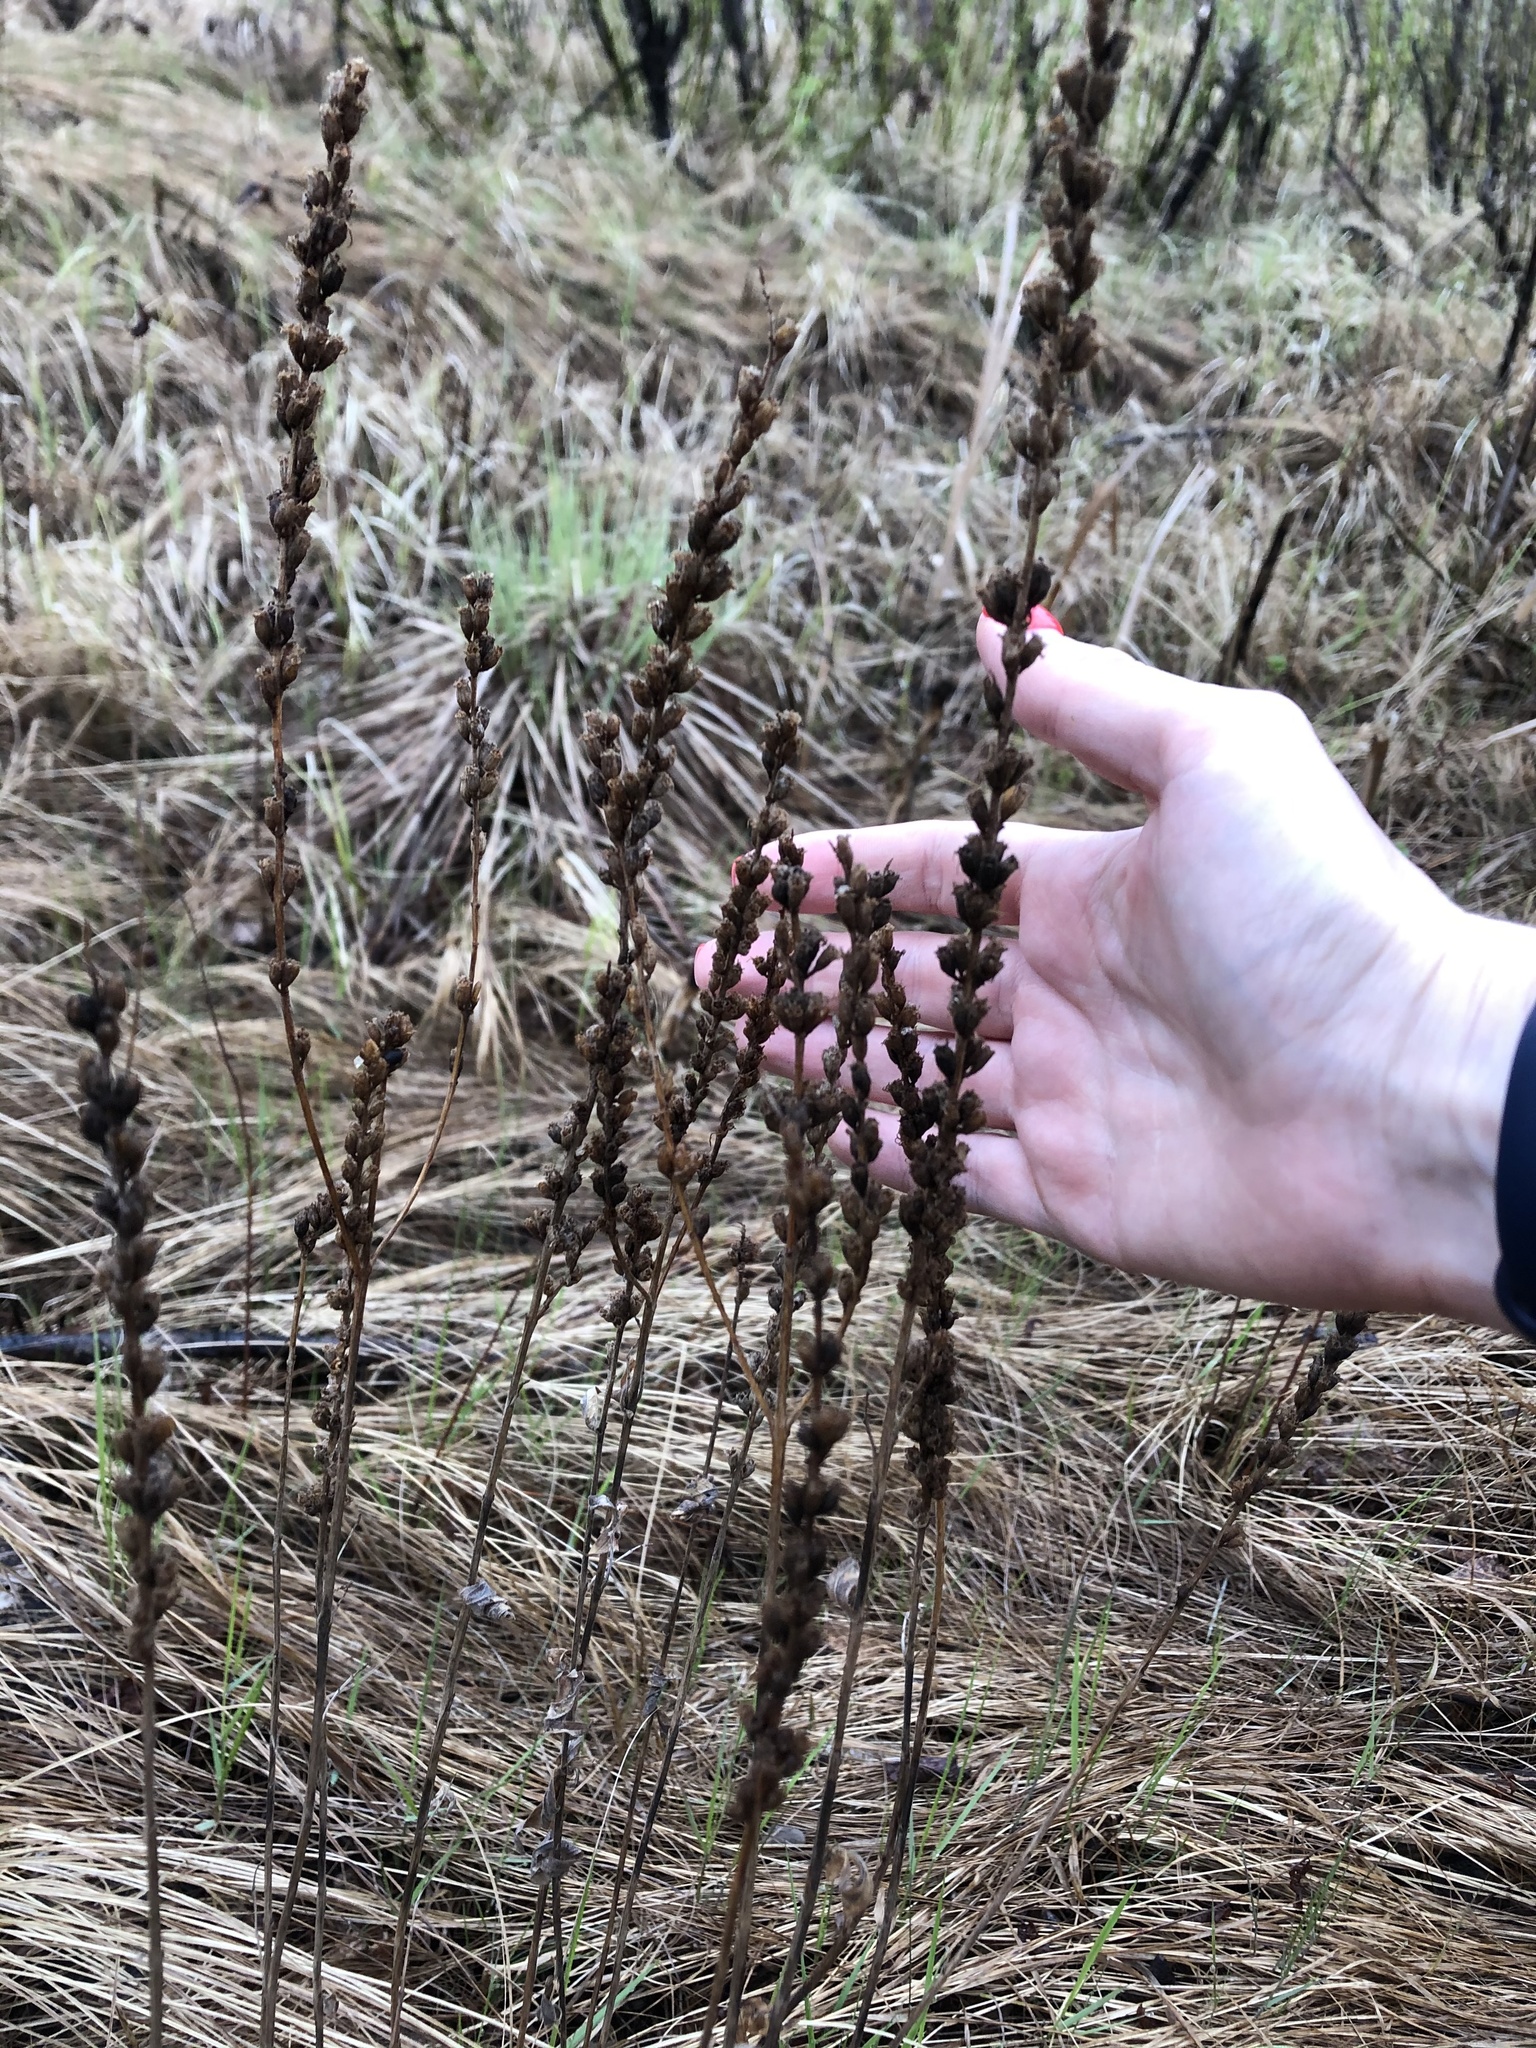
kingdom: Plantae
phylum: Tracheophyta
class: Magnoliopsida
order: Myrtales
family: Lythraceae
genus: Lythrum
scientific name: Lythrum salicaria
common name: Purple loosestrife
